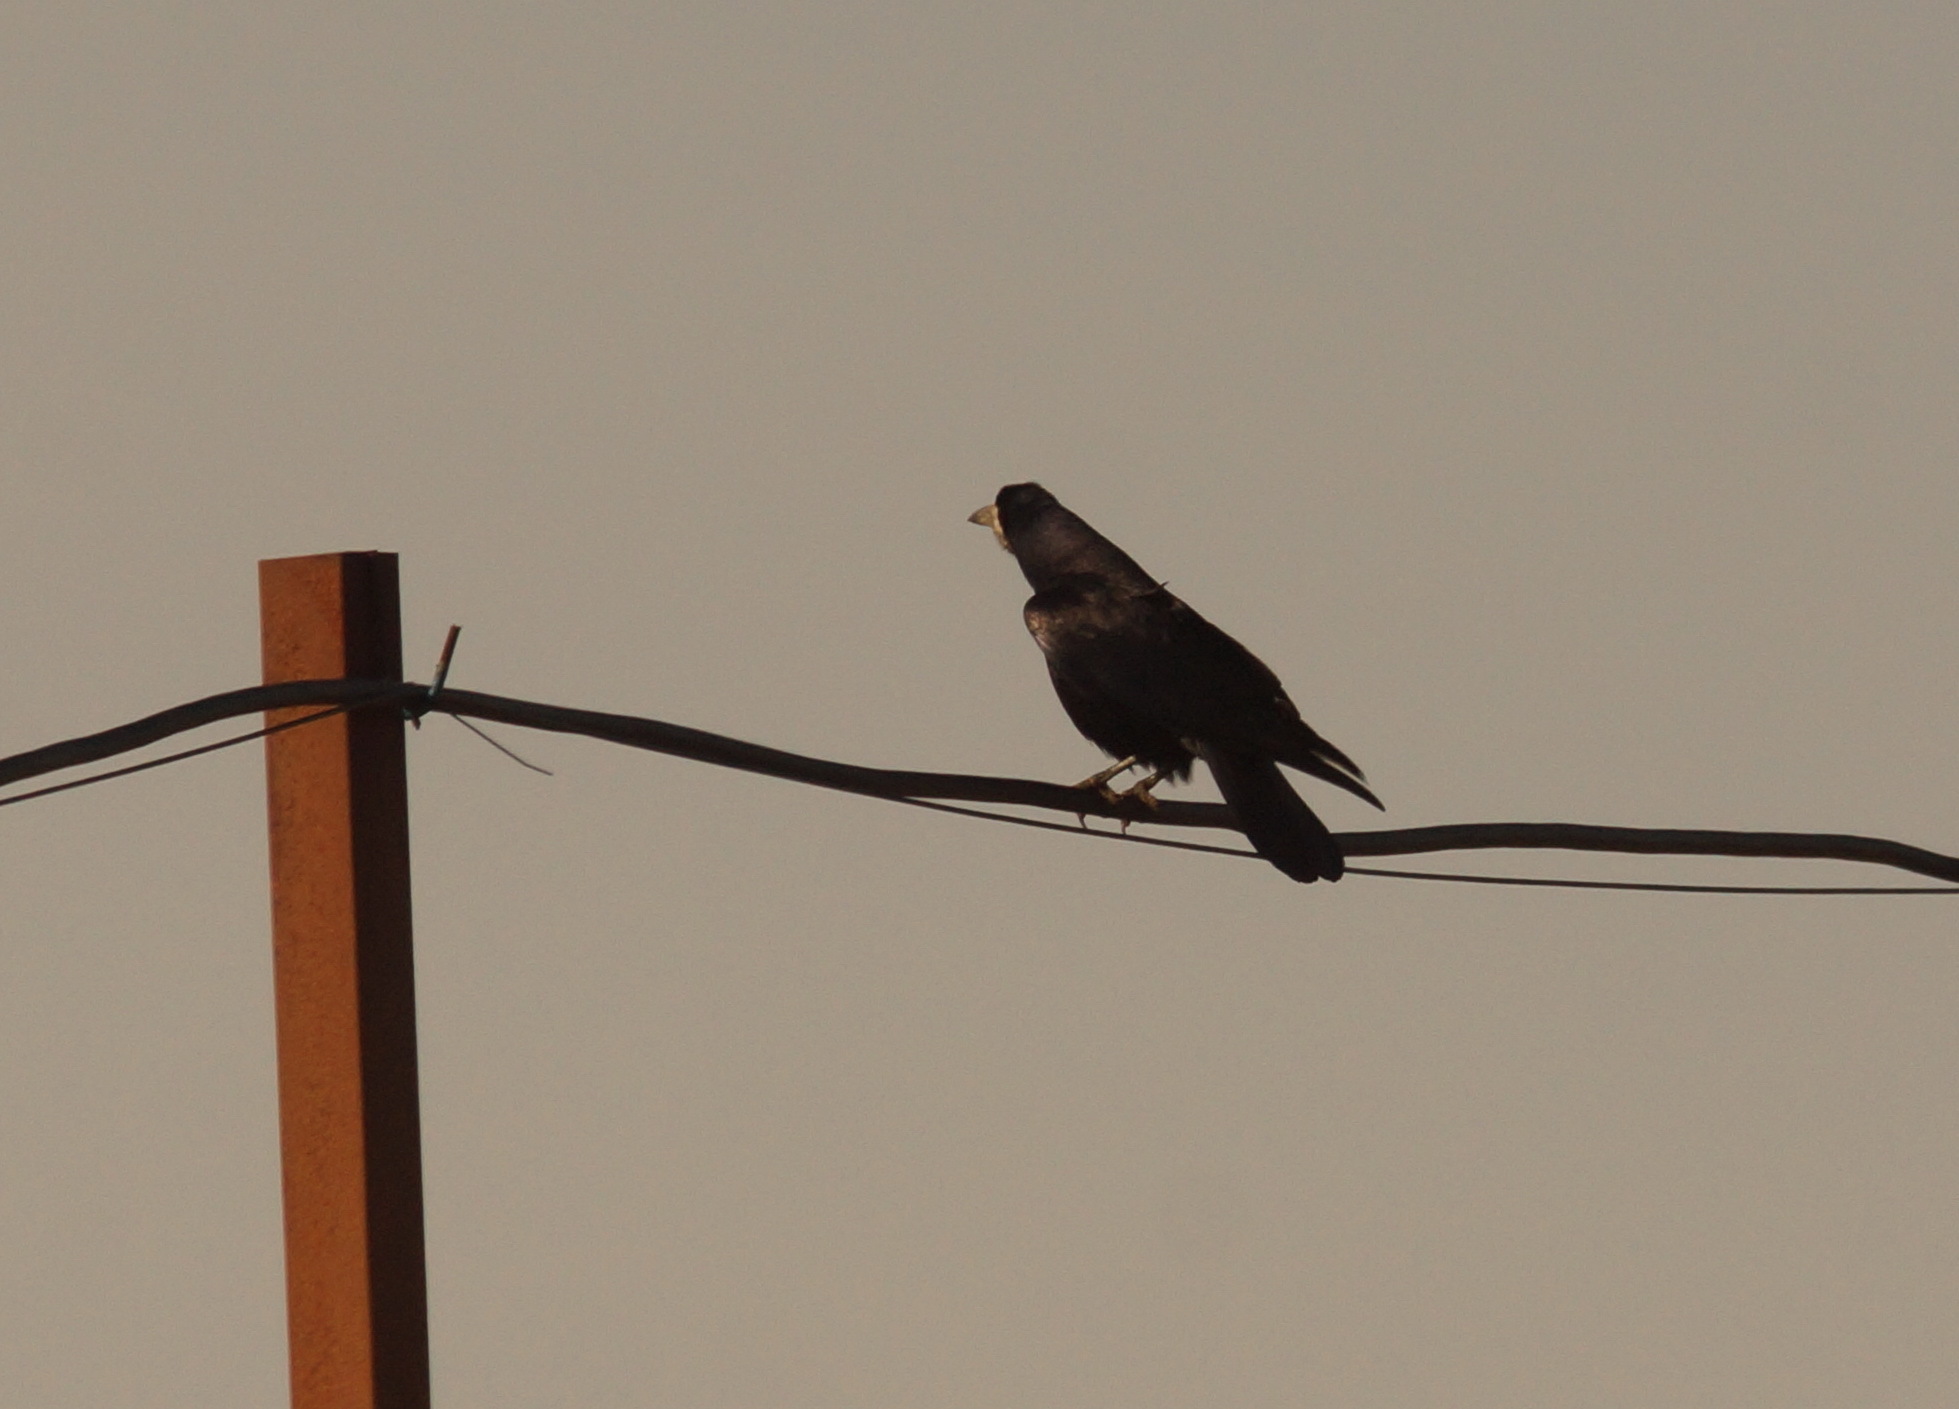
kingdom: Animalia
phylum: Chordata
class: Aves
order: Passeriformes
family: Corvidae
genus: Corvus
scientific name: Corvus frugilegus
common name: Rook
